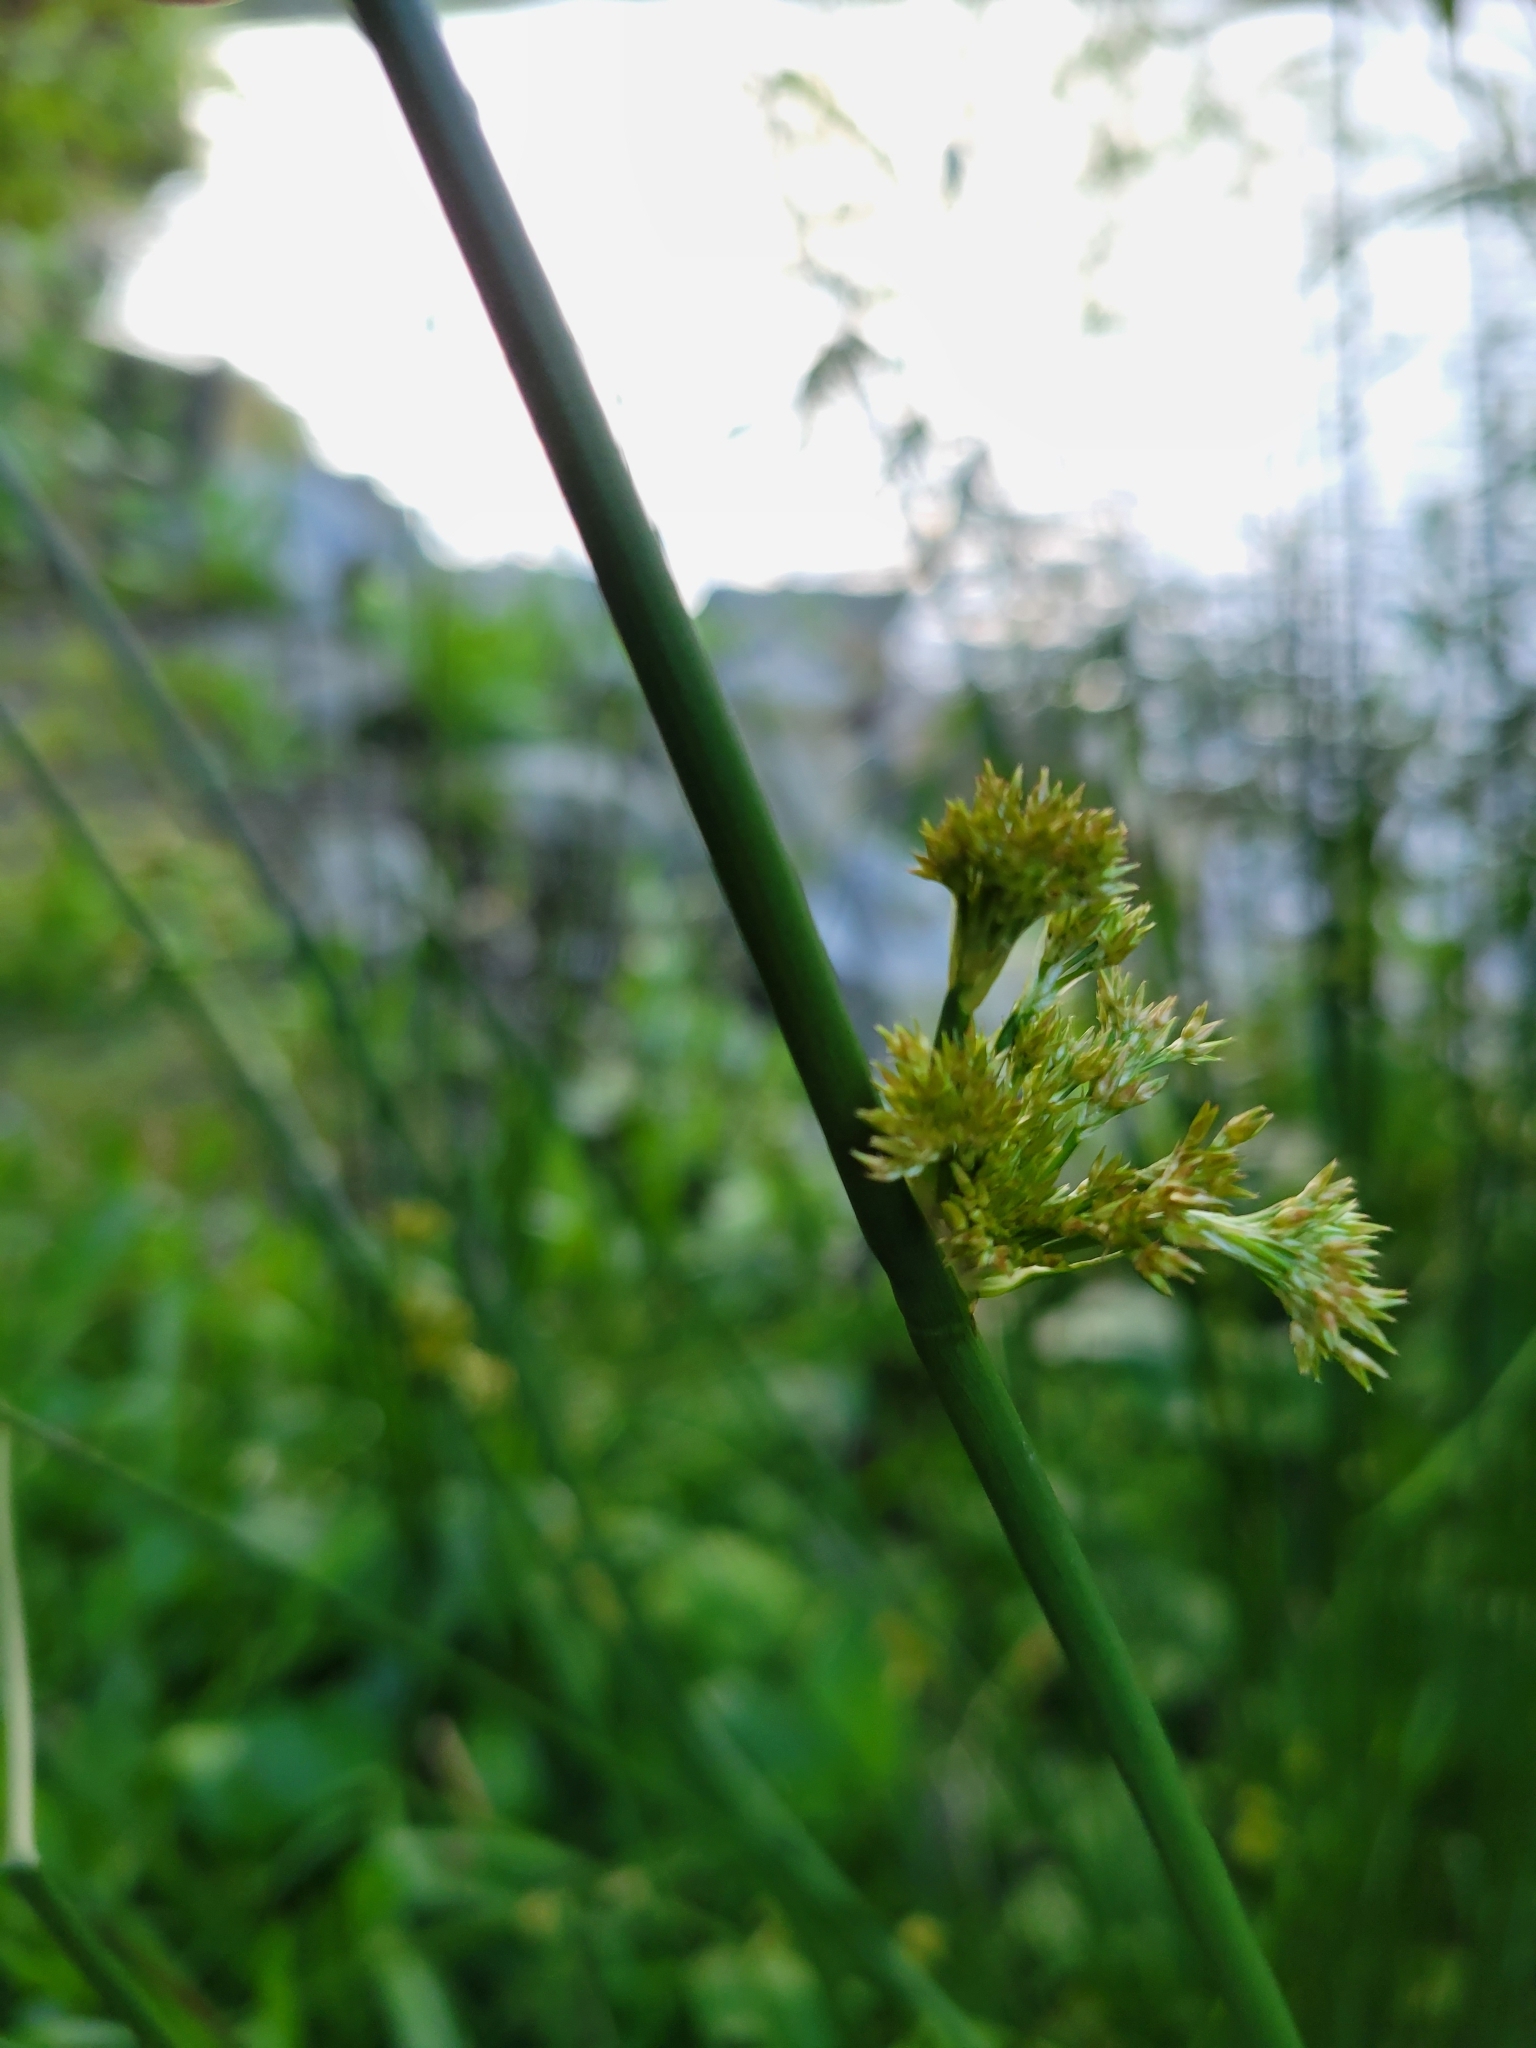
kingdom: Plantae
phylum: Tracheophyta
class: Liliopsida
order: Poales
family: Juncaceae
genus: Juncus
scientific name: Juncus effusus
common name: Soft rush
